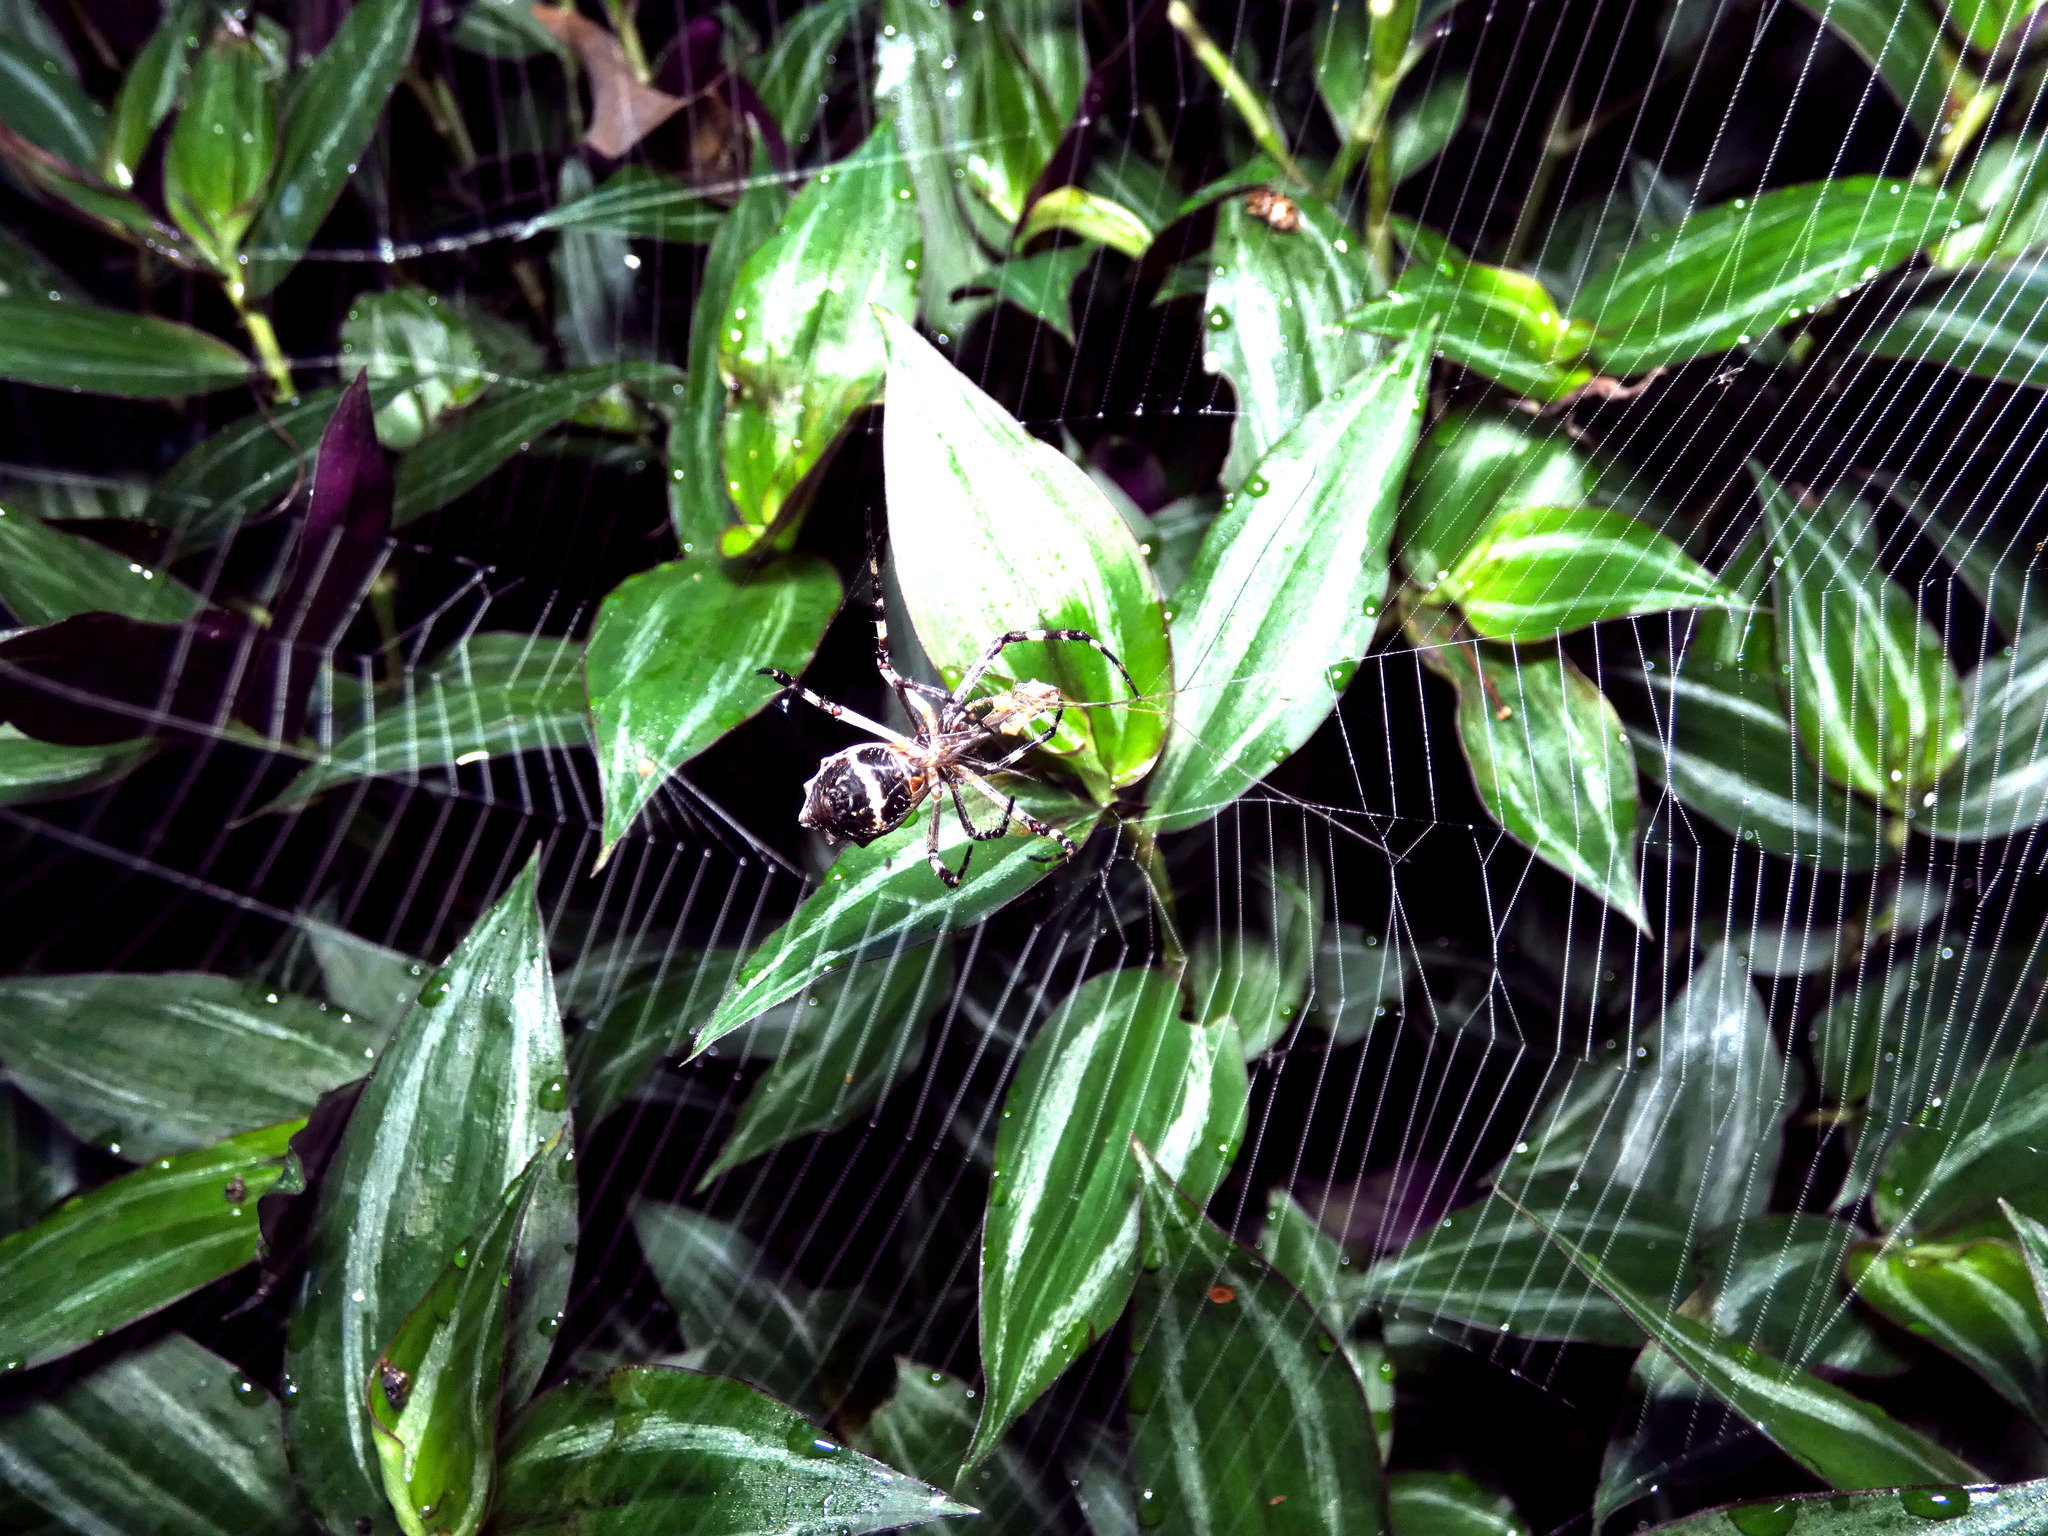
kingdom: Animalia
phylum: Arthropoda
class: Arachnida
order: Araneae
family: Araneidae
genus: Argiope
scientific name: Argiope argentata
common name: Orb weavers
